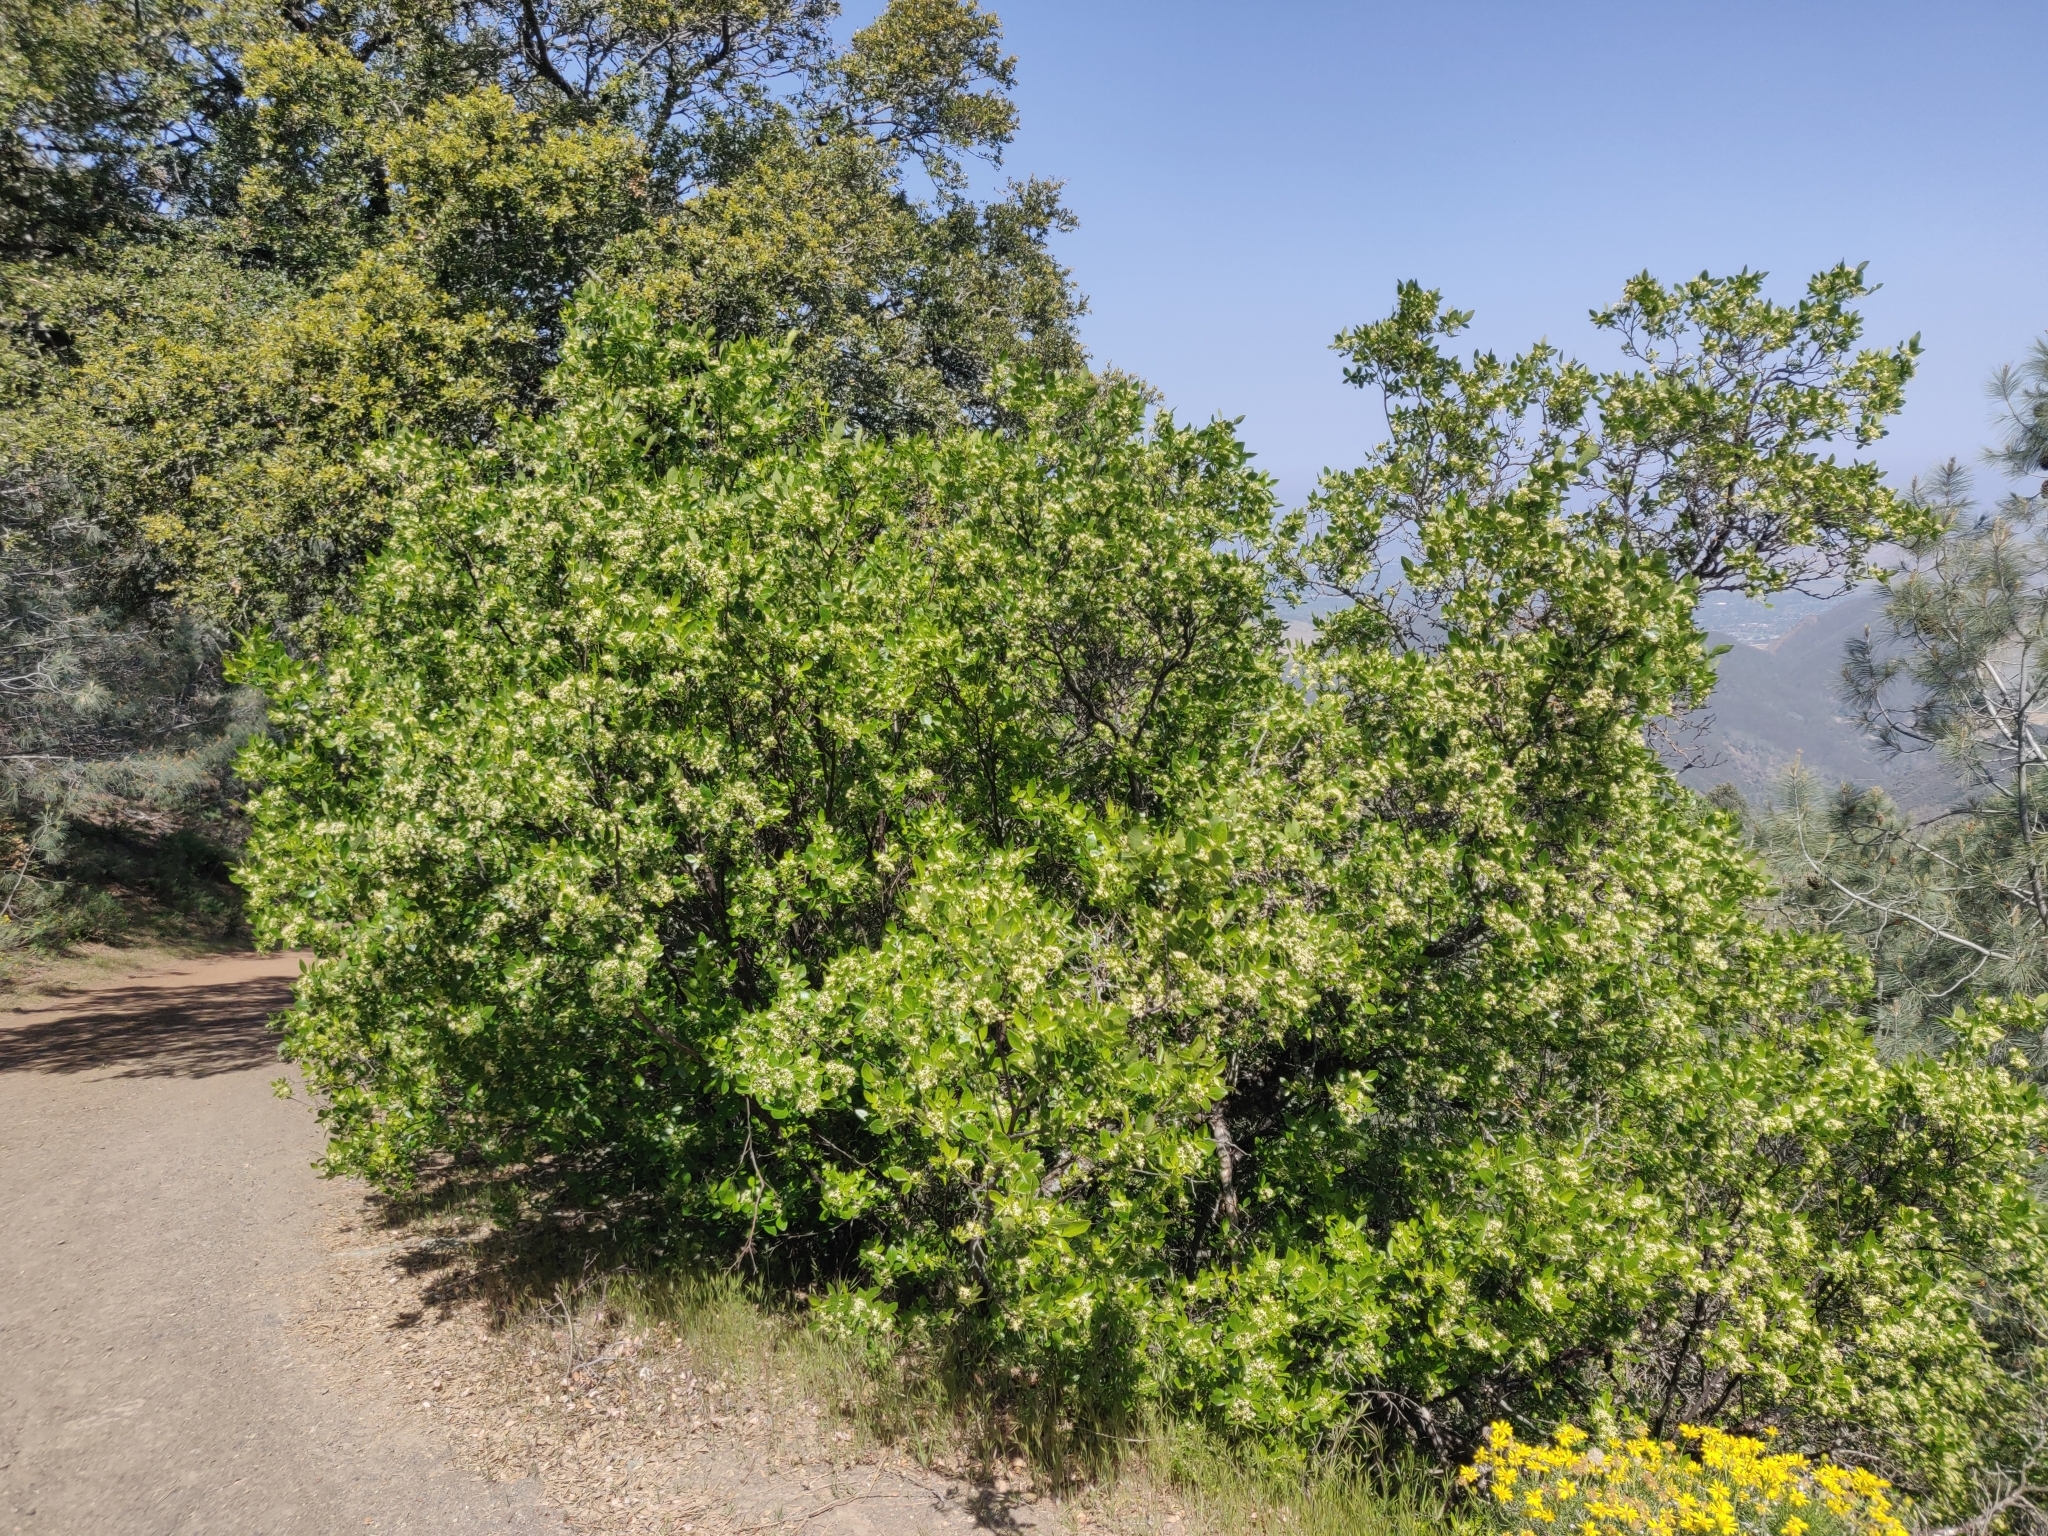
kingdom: Plantae
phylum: Tracheophyta
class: Magnoliopsida
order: Sapindales
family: Rutaceae
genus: Ptelea
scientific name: Ptelea crenulata
